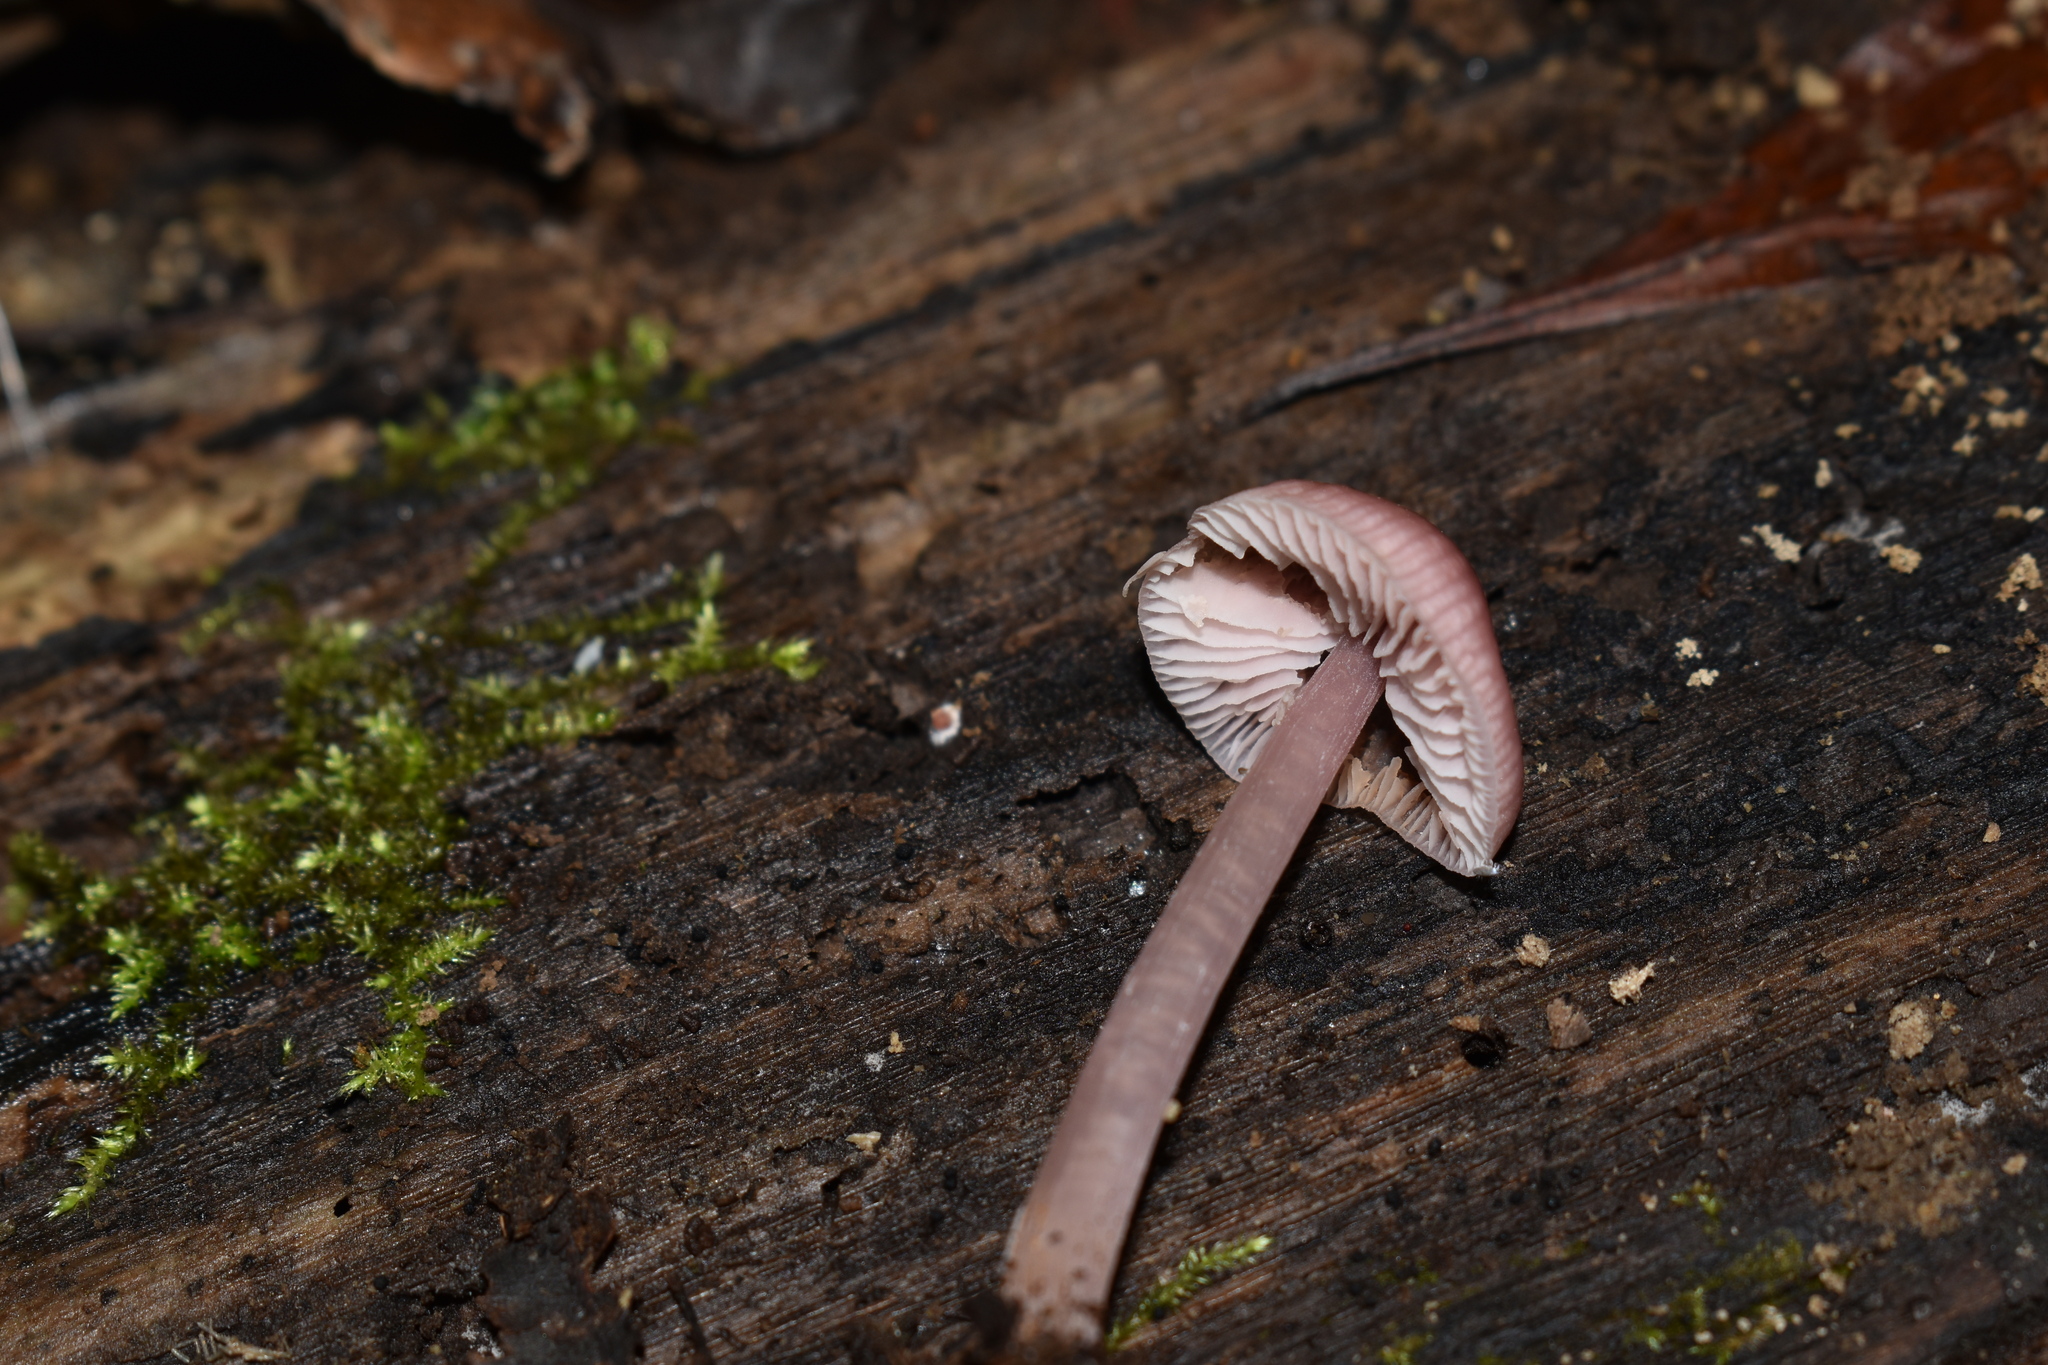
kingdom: Fungi
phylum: Basidiomycota
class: Agaricomycetes
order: Agaricales
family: Mycenaceae
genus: Mycena
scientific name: Mycena pura
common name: Lilac bonnet
